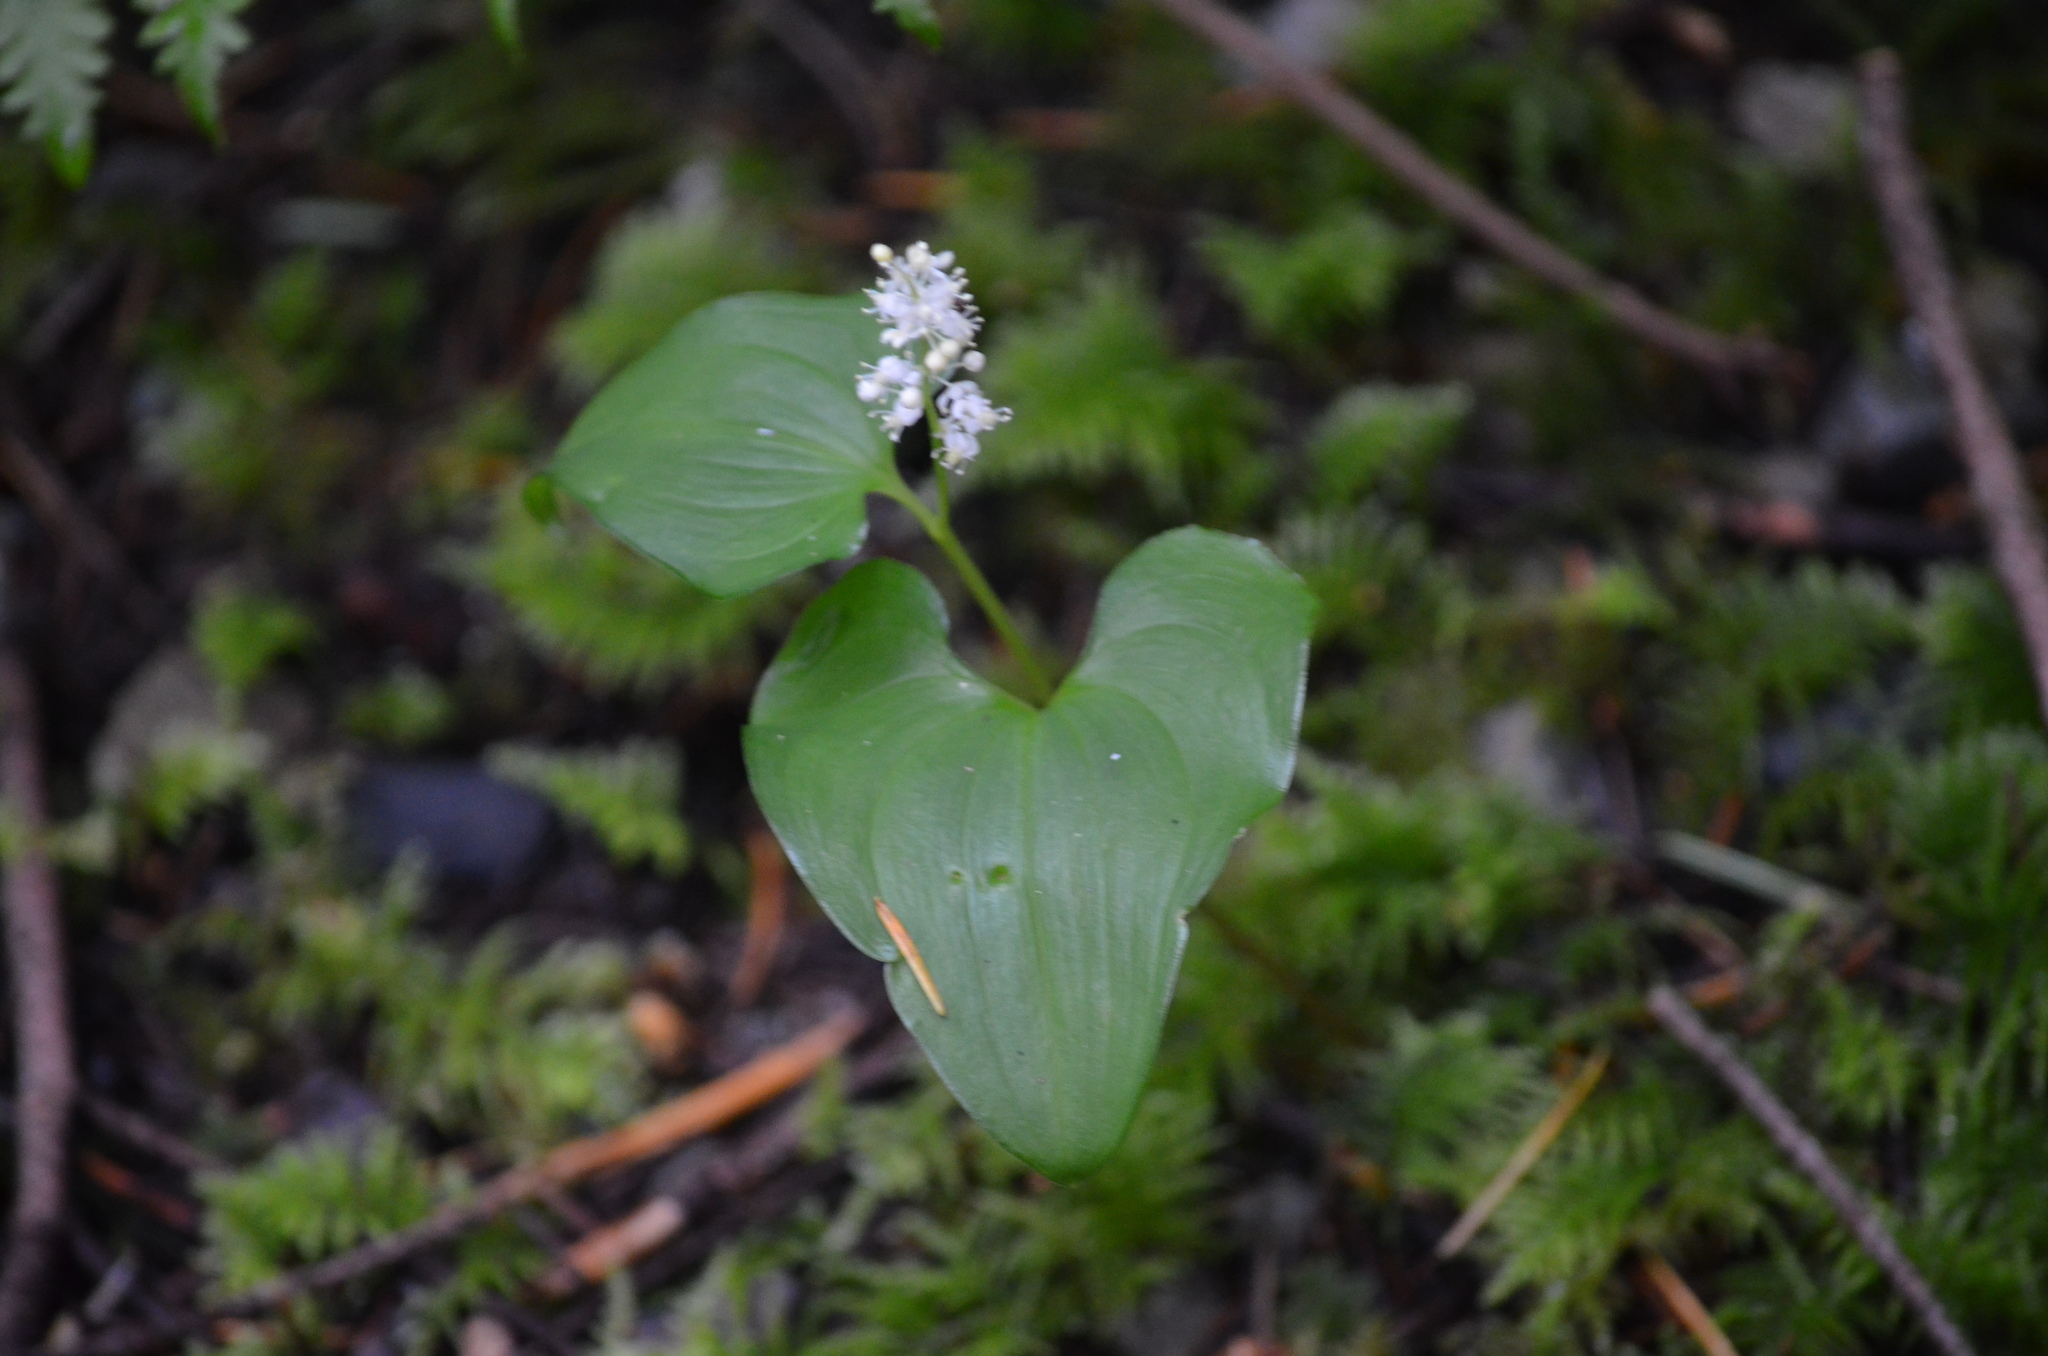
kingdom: Plantae
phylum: Tracheophyta
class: Liliopsida
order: Asparagales
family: Asparagaceae
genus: Maianthemum
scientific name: Maianthemum dilatatum
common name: False lily-of-the-valley
